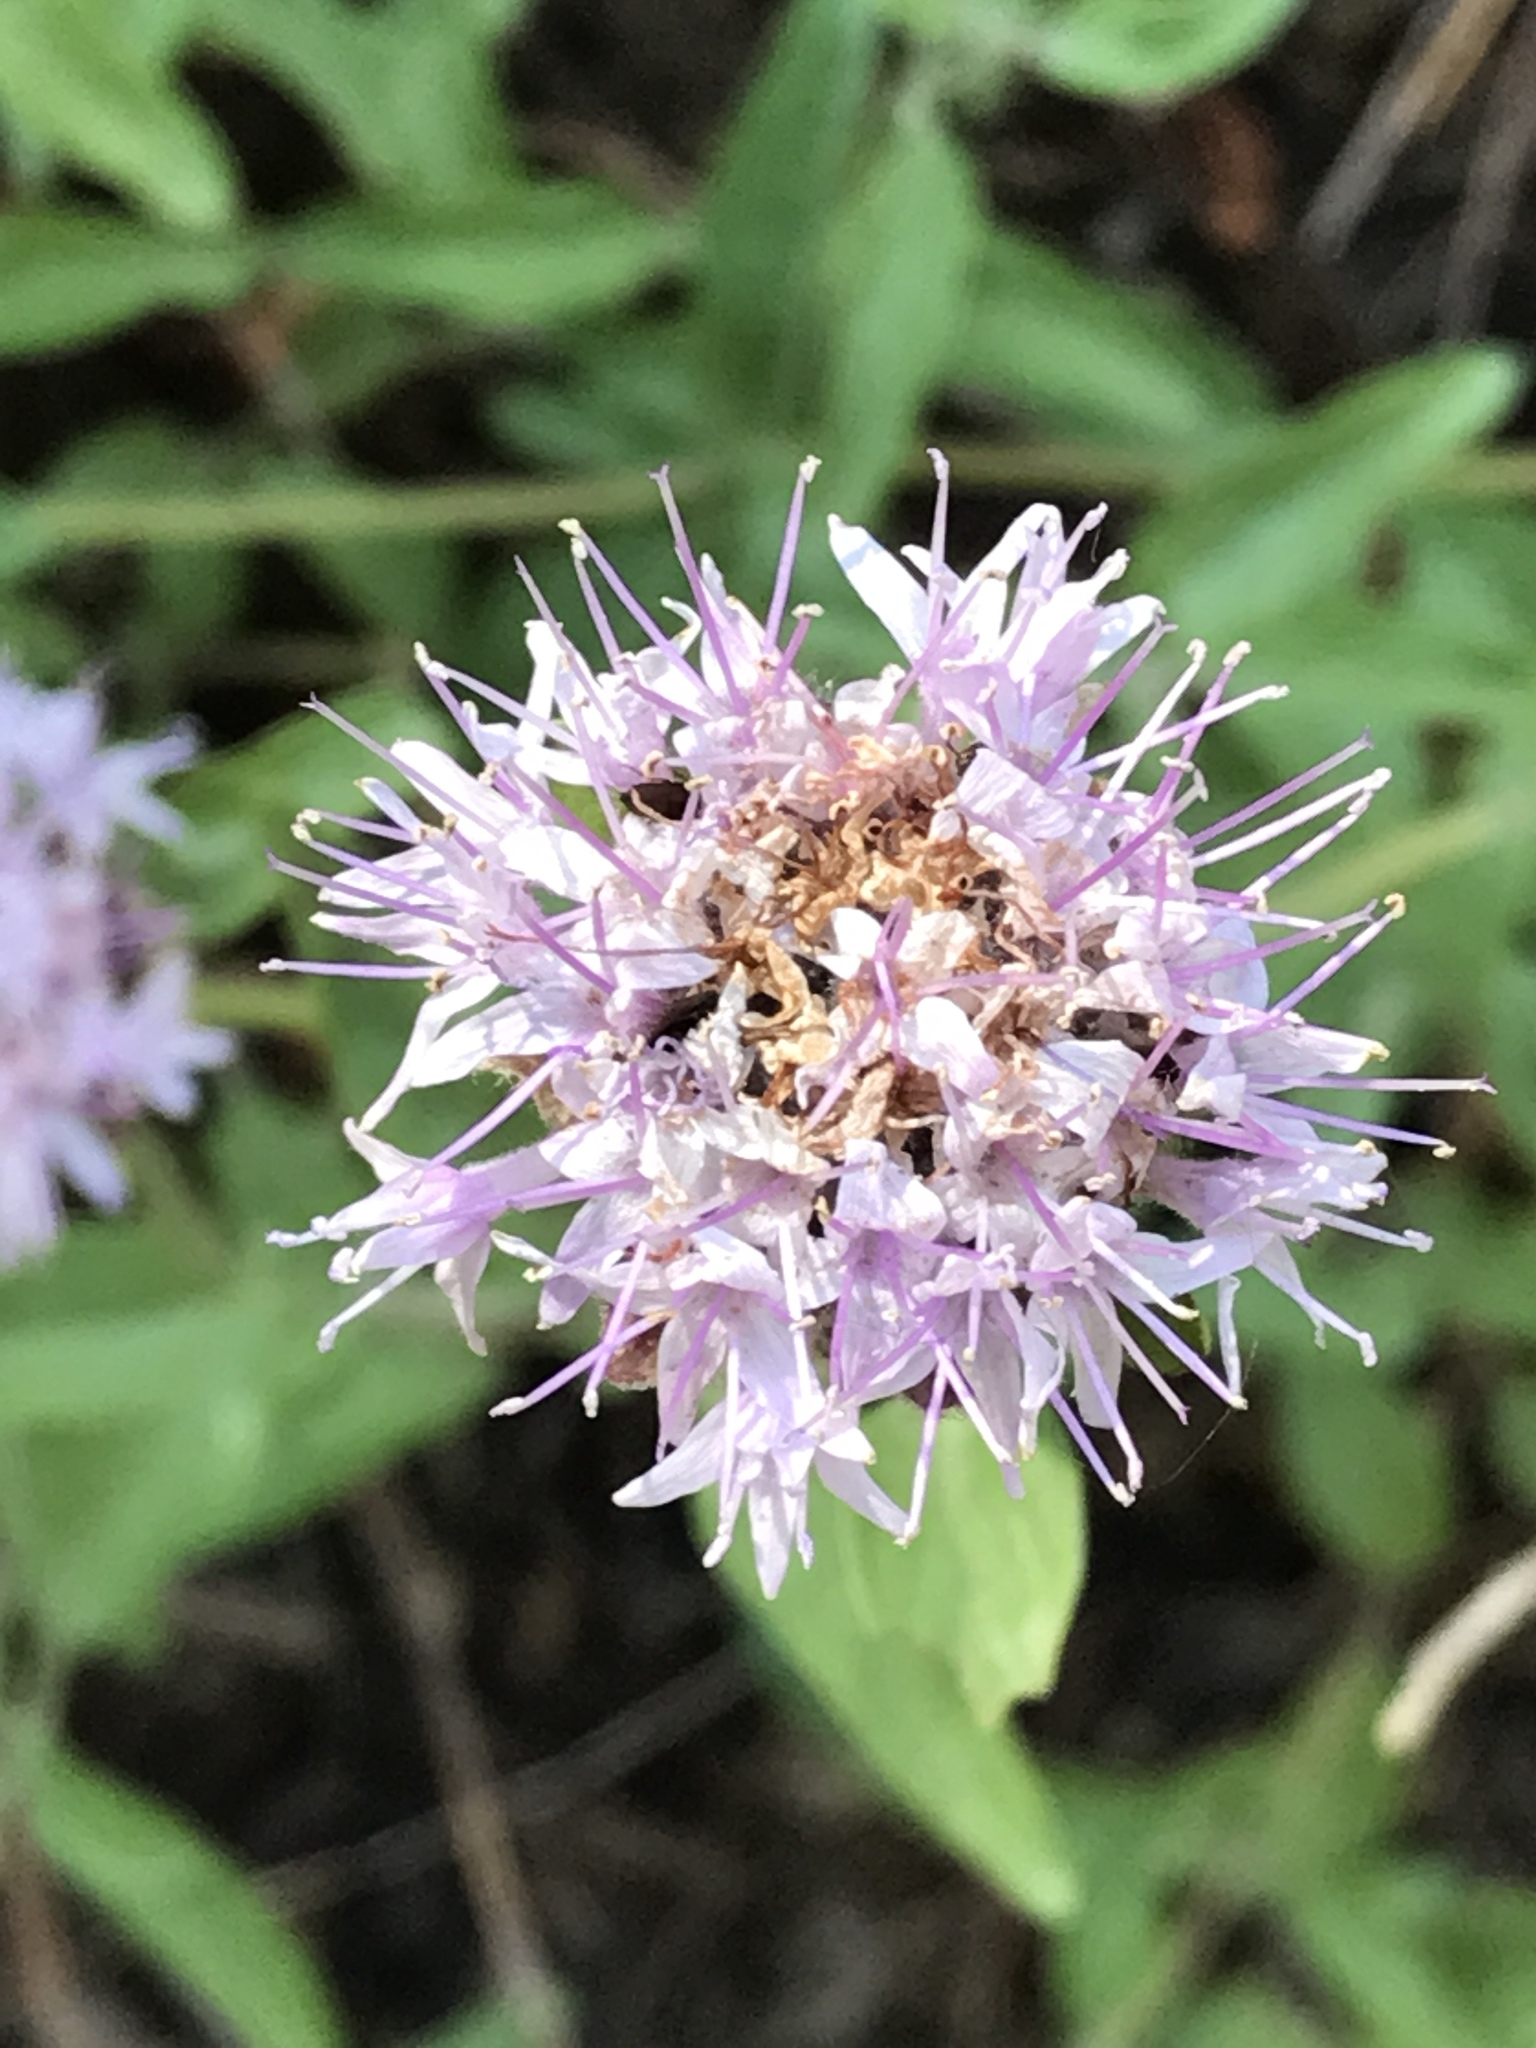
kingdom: Plantae
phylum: Tracheophyta
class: Magnoliopsida
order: Lamiales
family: Lamiaceae
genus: Monardella
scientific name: Monardella odoratissima
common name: Pacific monardella
